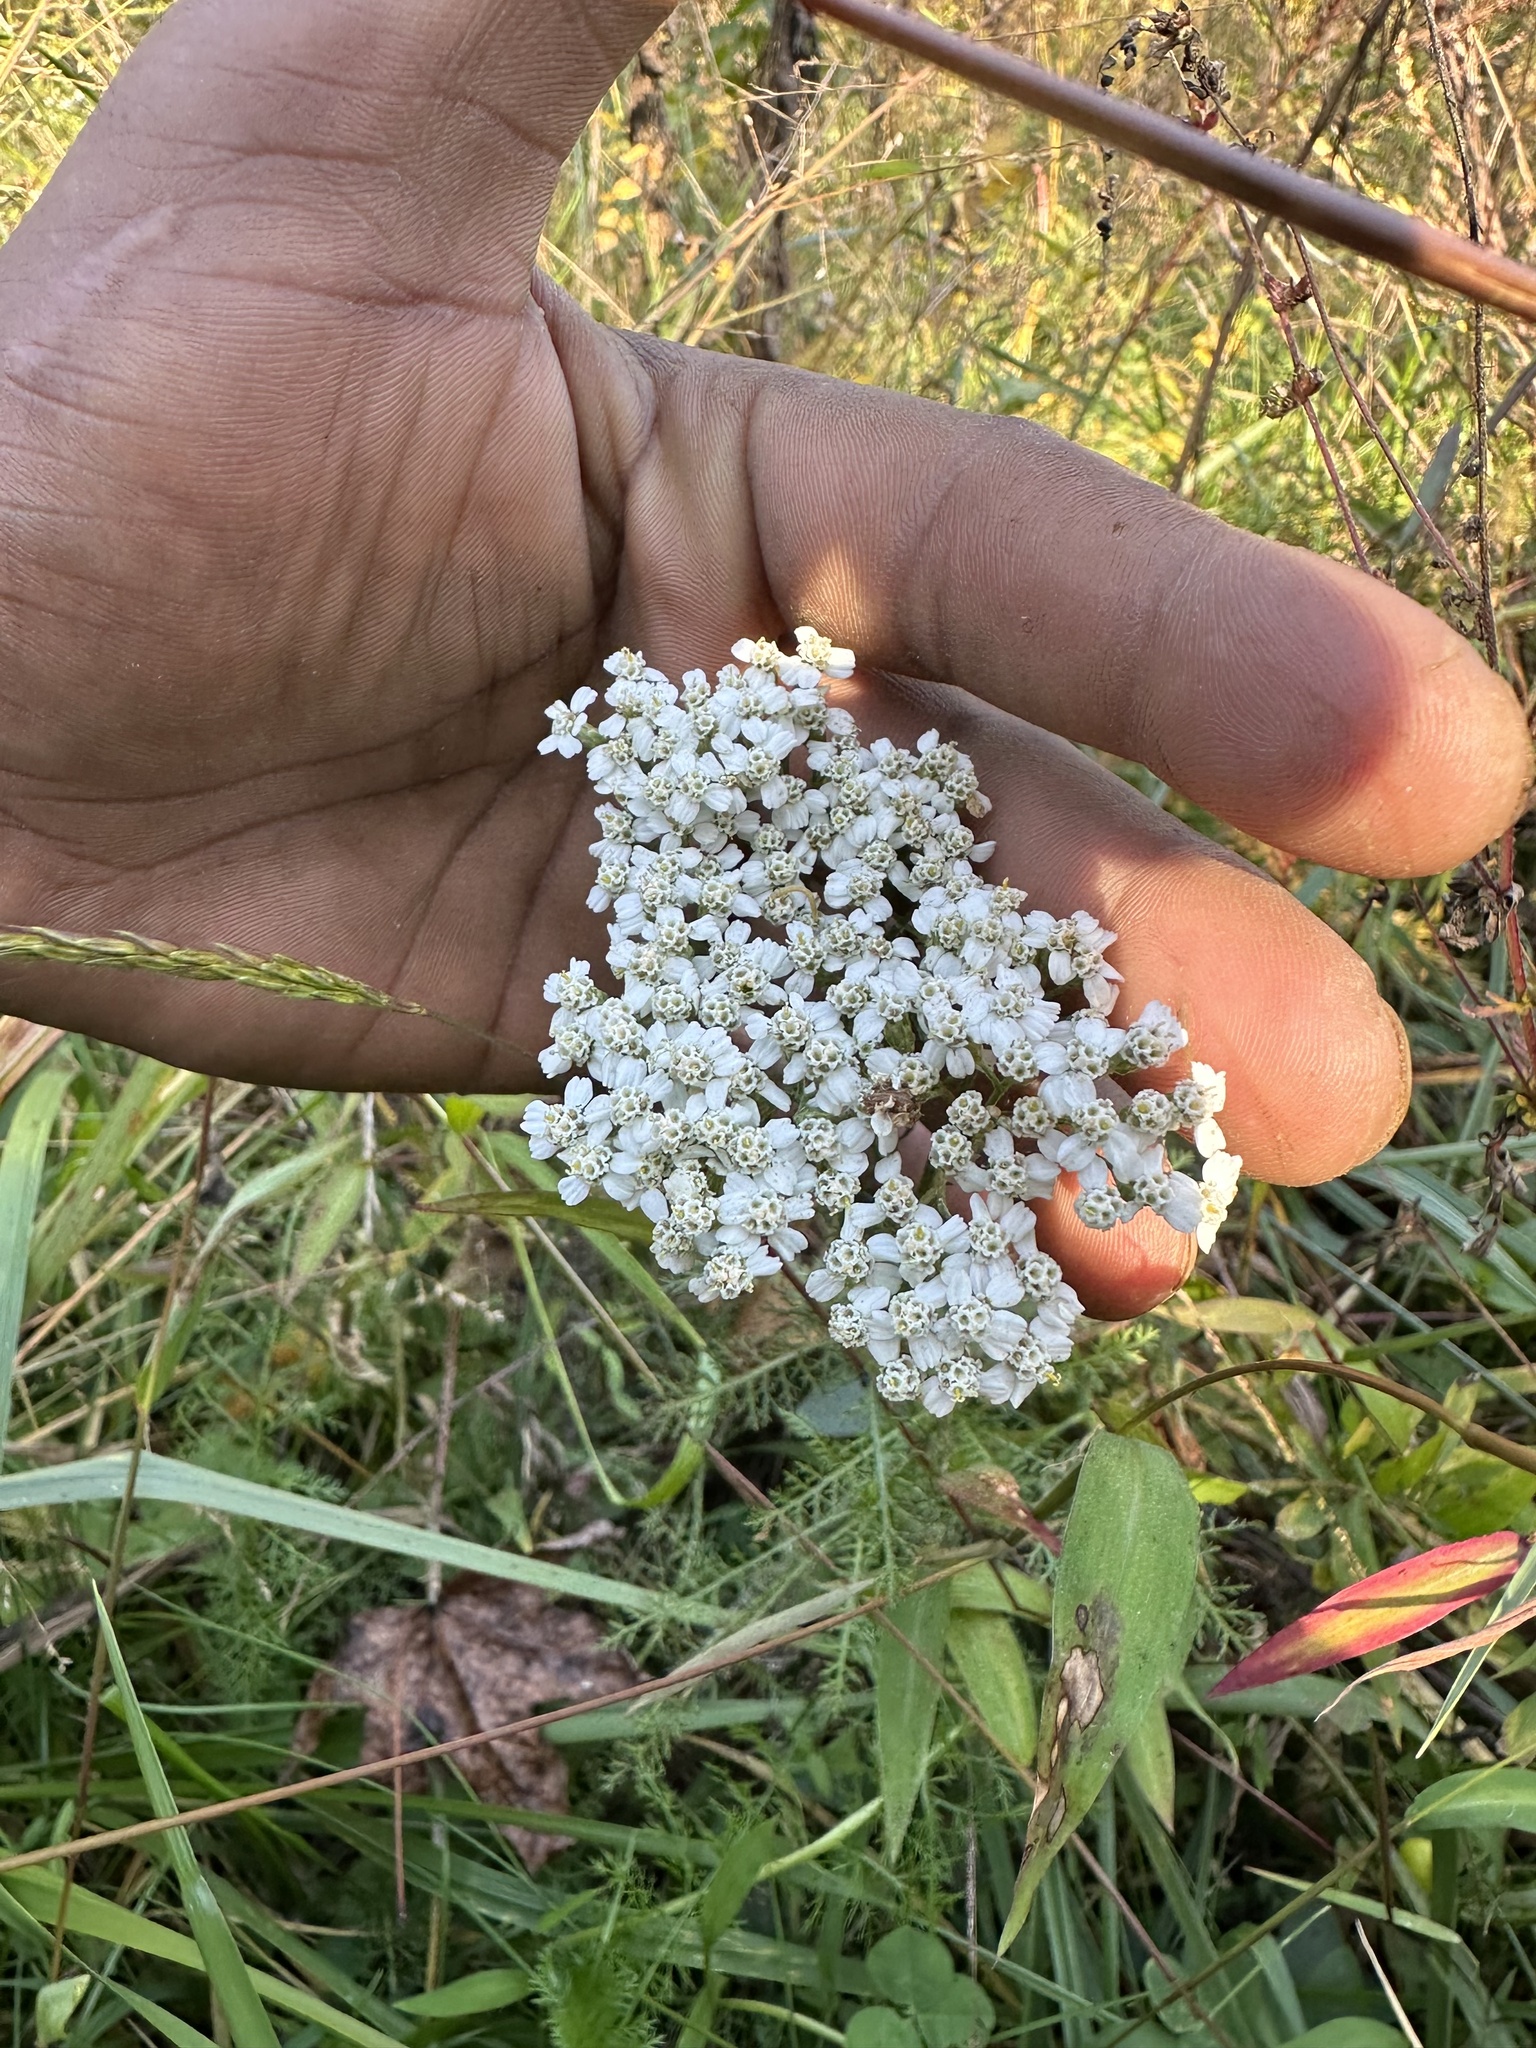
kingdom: Plantae
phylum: Tracheophyta
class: Magnoliopsida
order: Asterales
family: Asteraceae
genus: Achillea
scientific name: Achillea millefolium
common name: Yarrow
